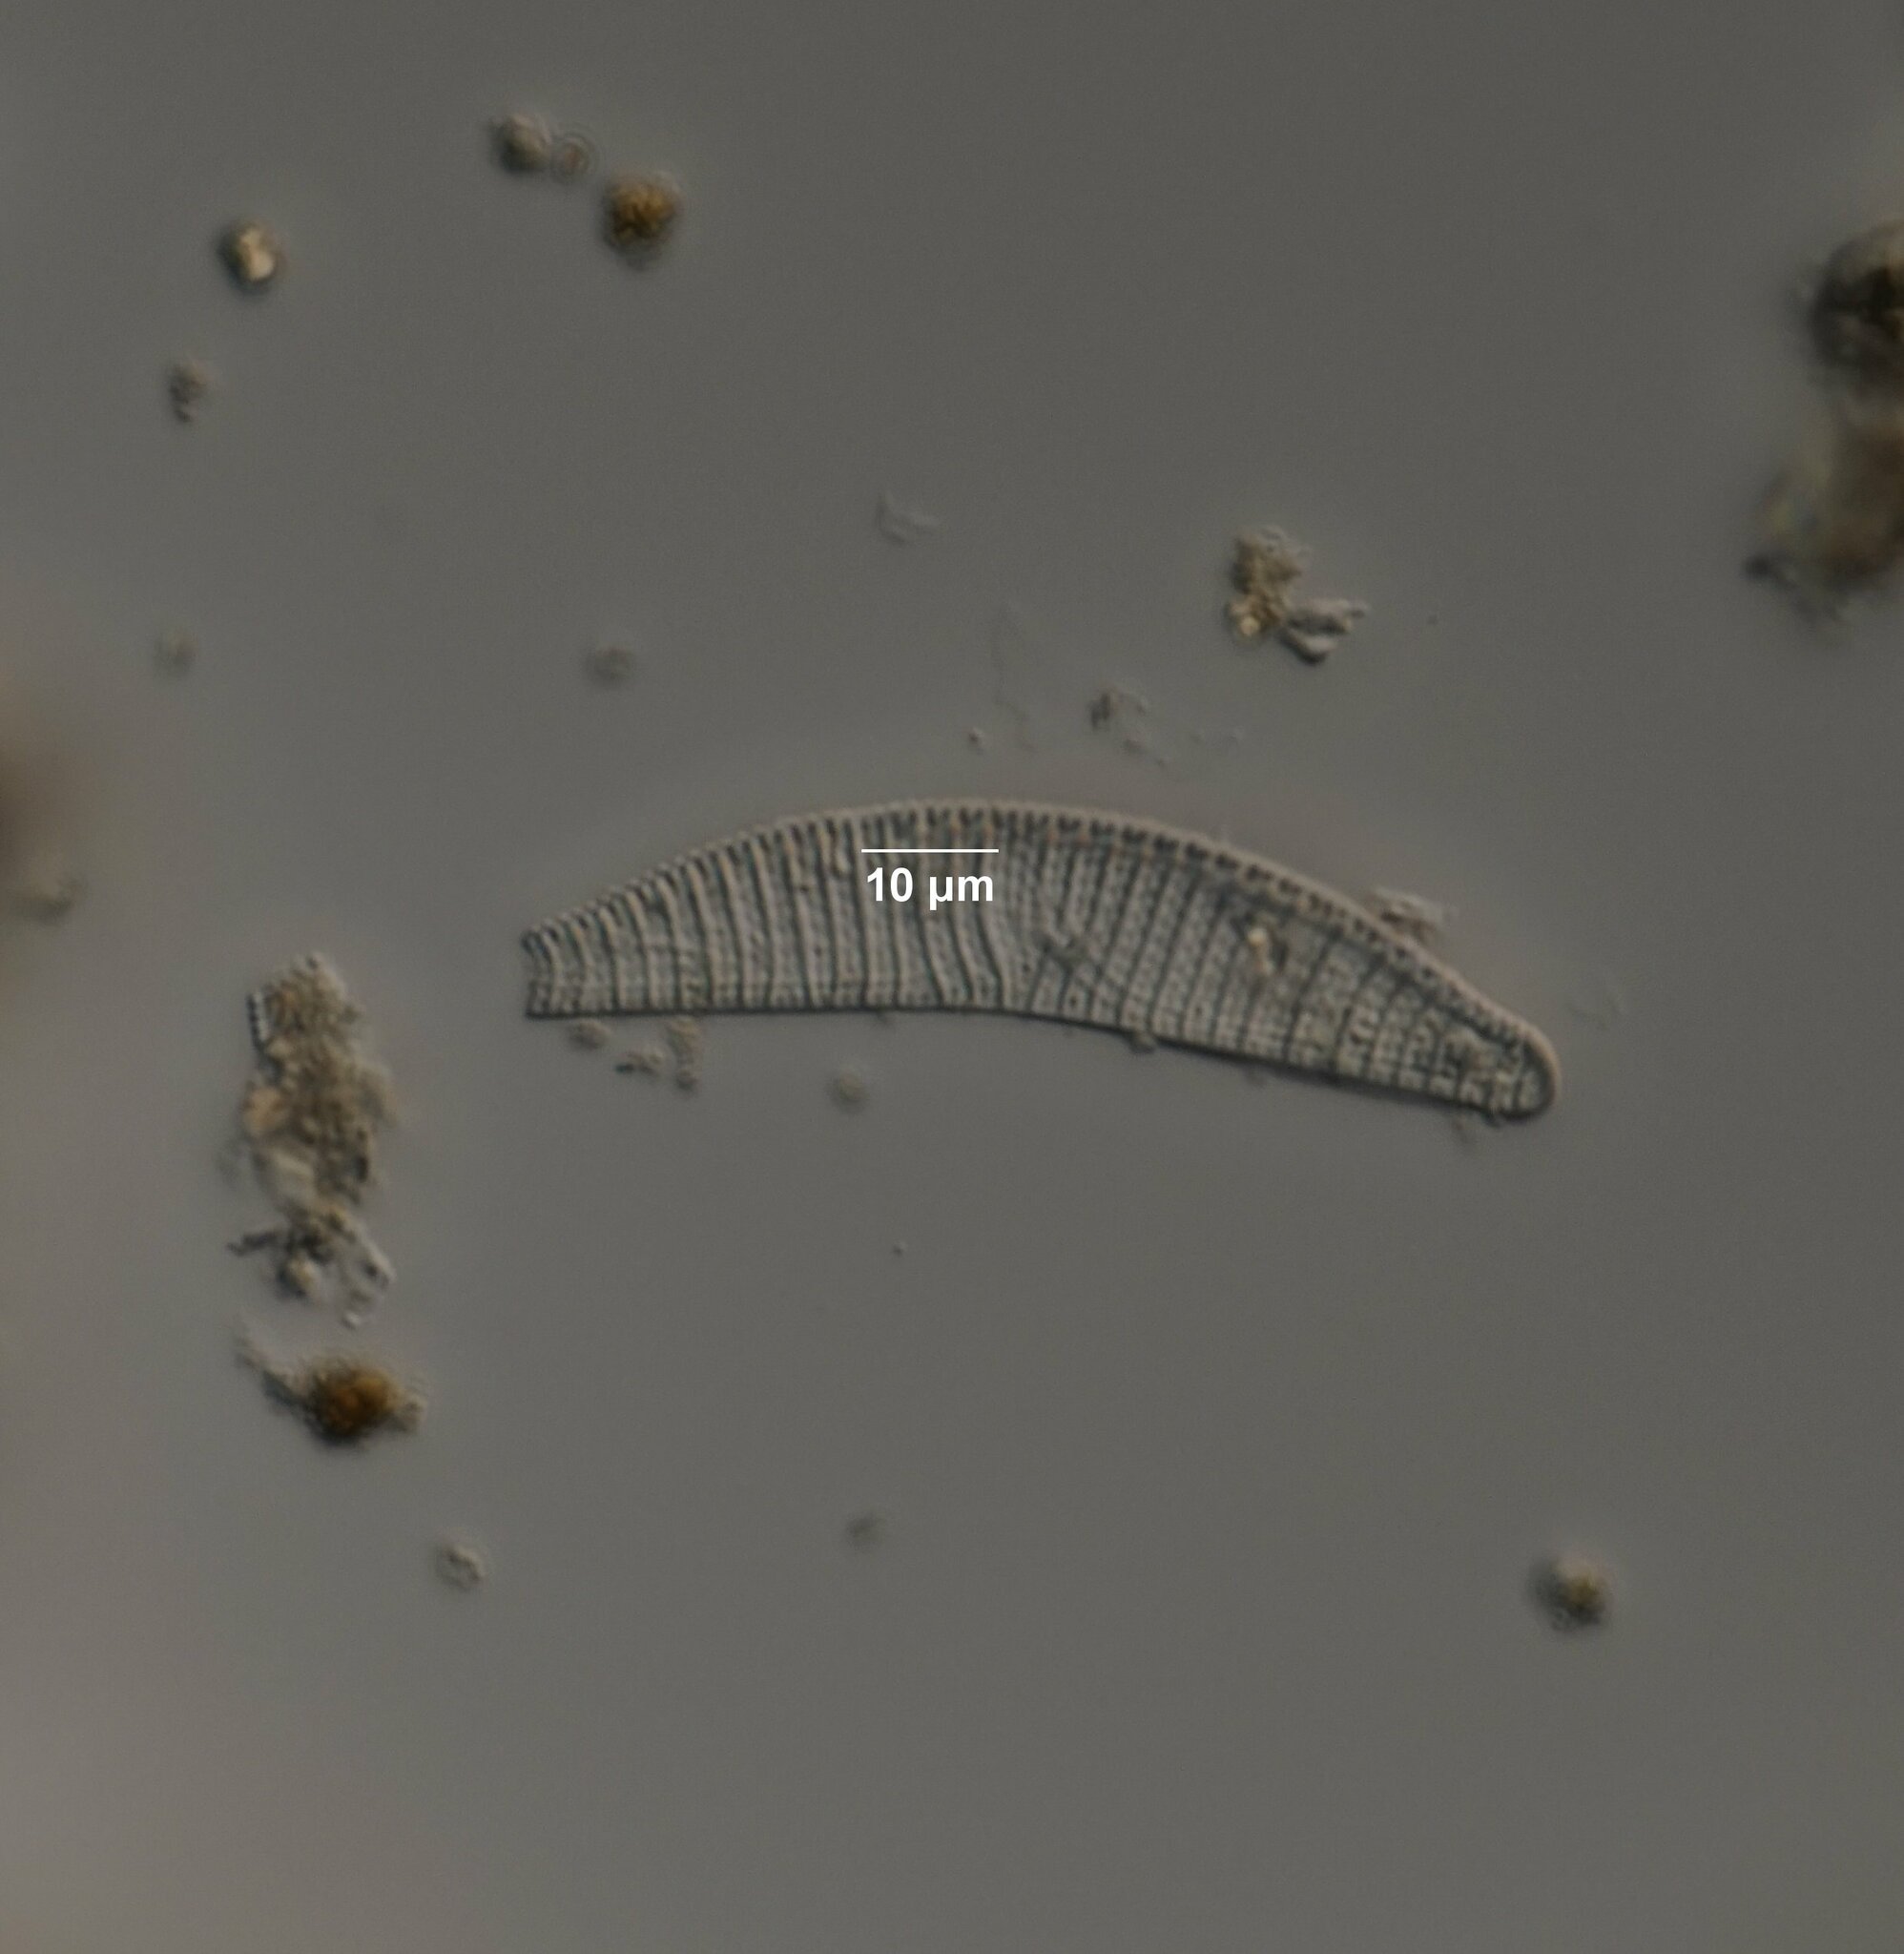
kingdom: Chromista
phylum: Ochrophyta
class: Bacillariophyceae
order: Naviculales
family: Naviculaceae
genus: Navicula
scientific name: Navicula turgida
